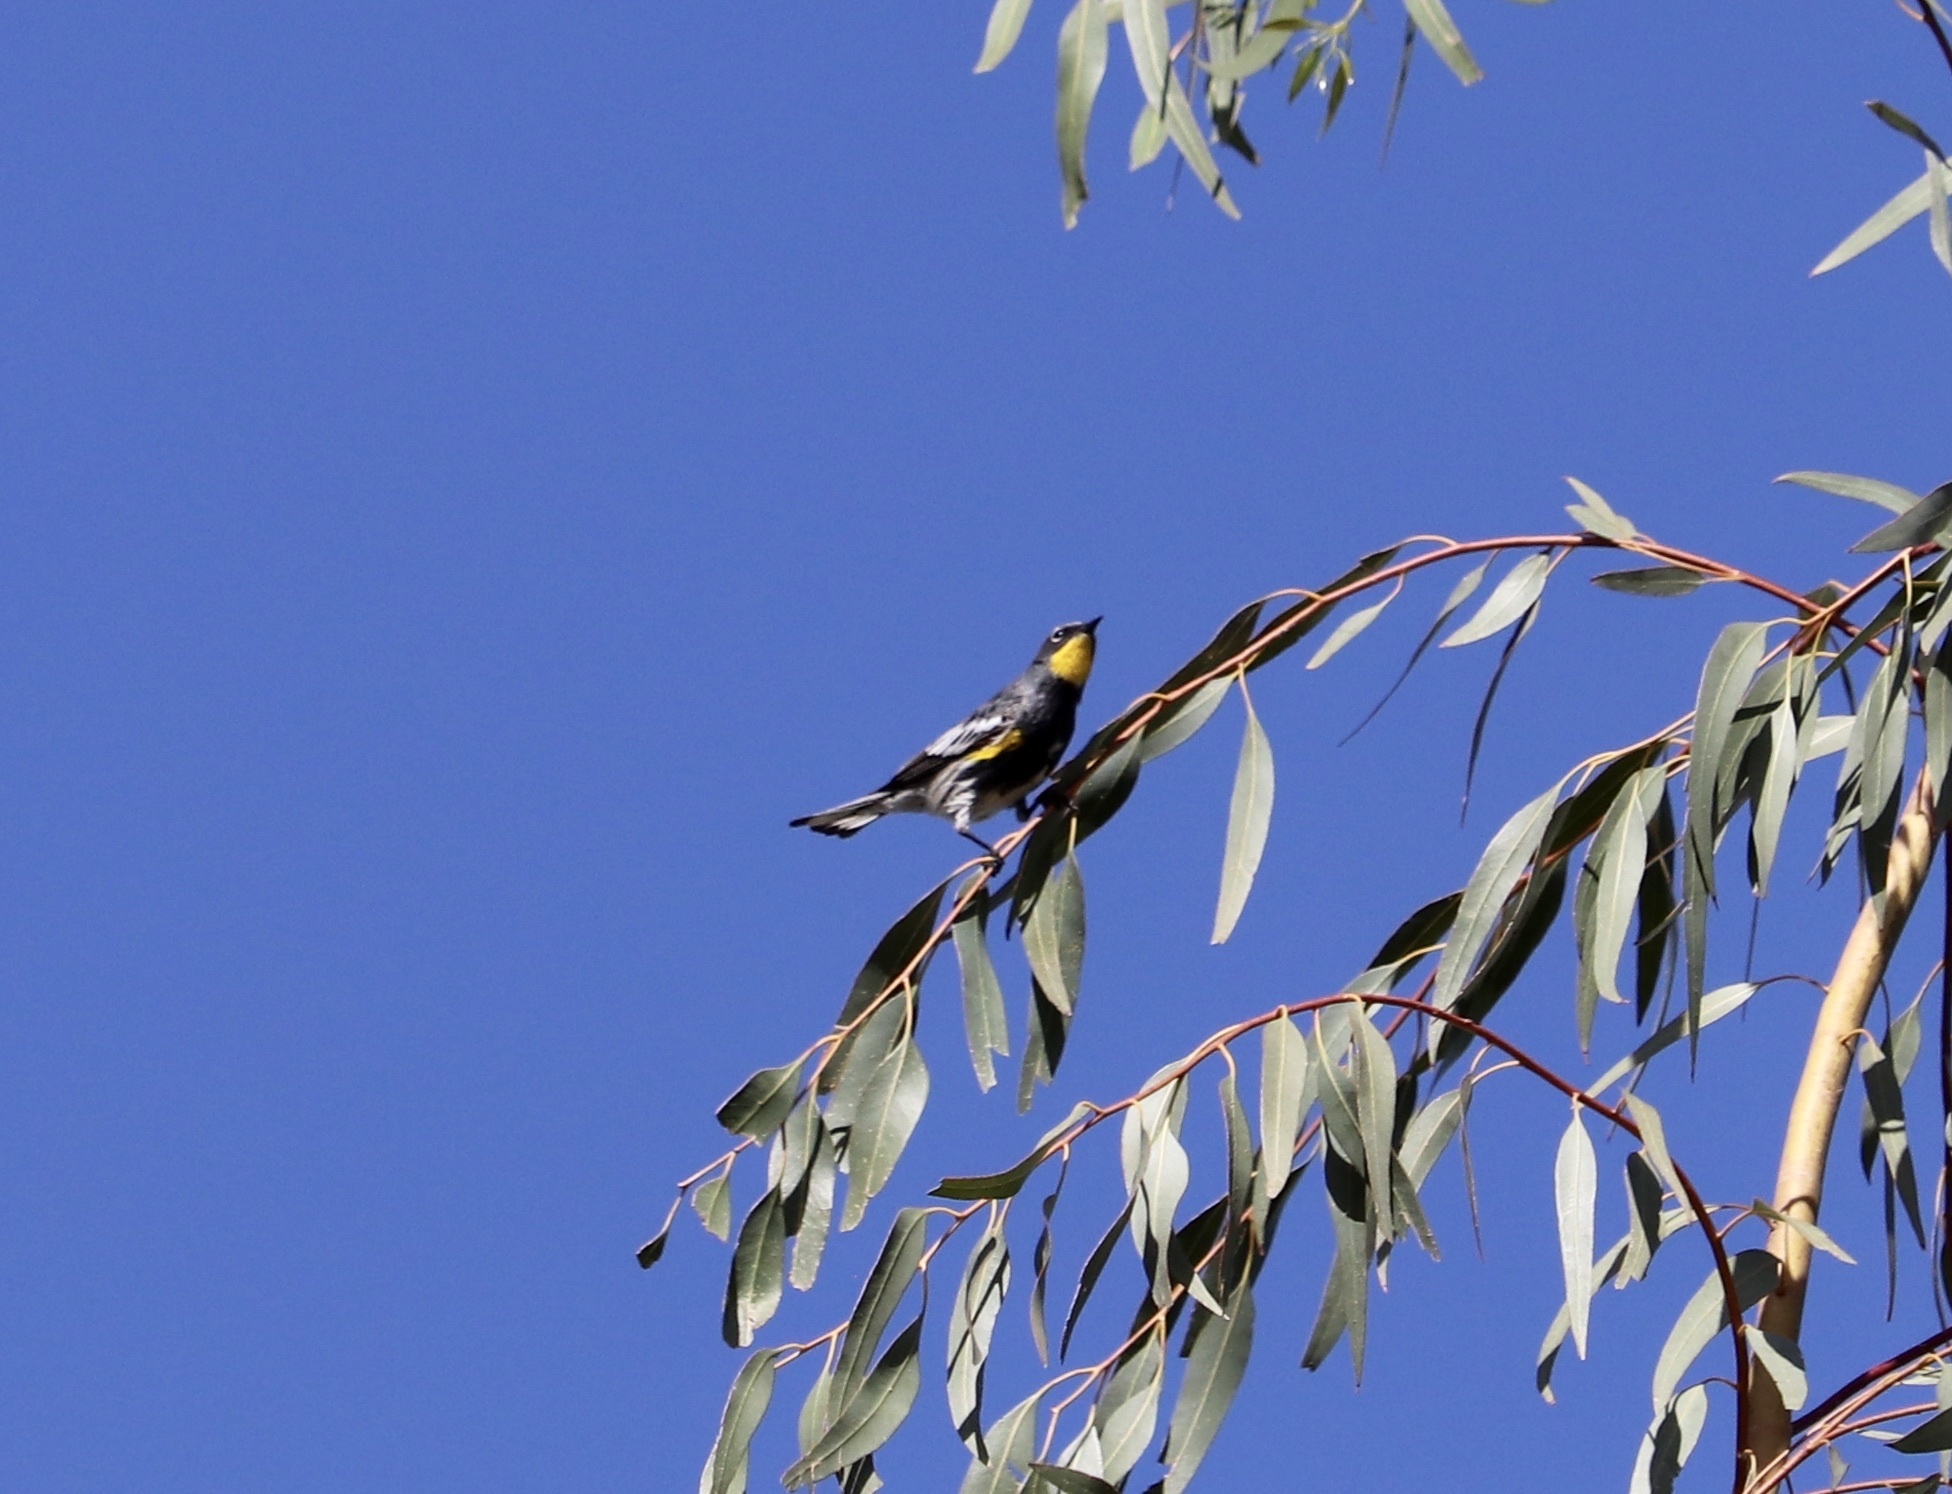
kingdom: Animalia
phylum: Chordata
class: Aves
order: Passeriformes
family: Parulidae
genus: Setophaga
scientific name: Setophaga auduboni
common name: Audubon's warbler
